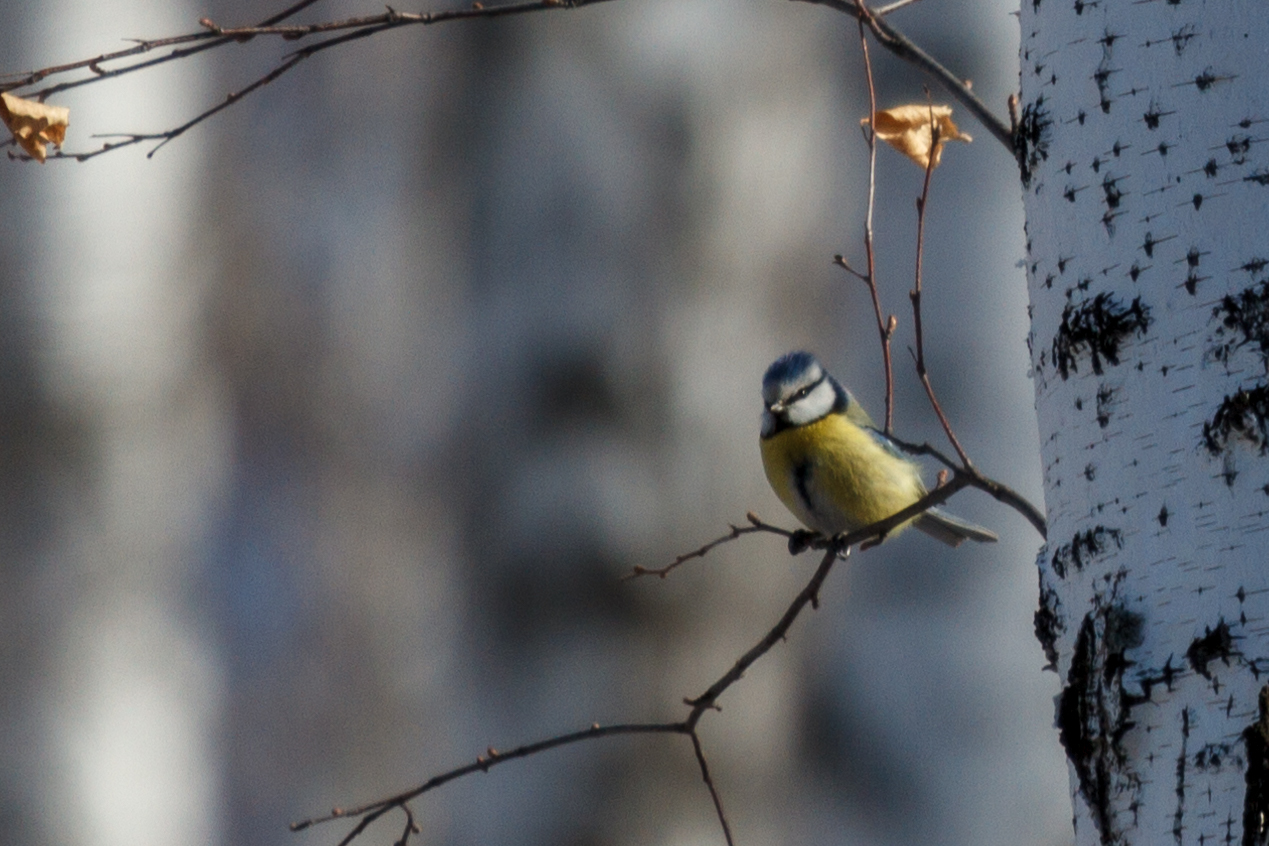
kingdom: Animalia
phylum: Chordata
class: Aves
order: Passeriformes
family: Paridae
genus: Cyanistes
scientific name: Cyanistes caeruleus
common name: Eurasian blue tit
